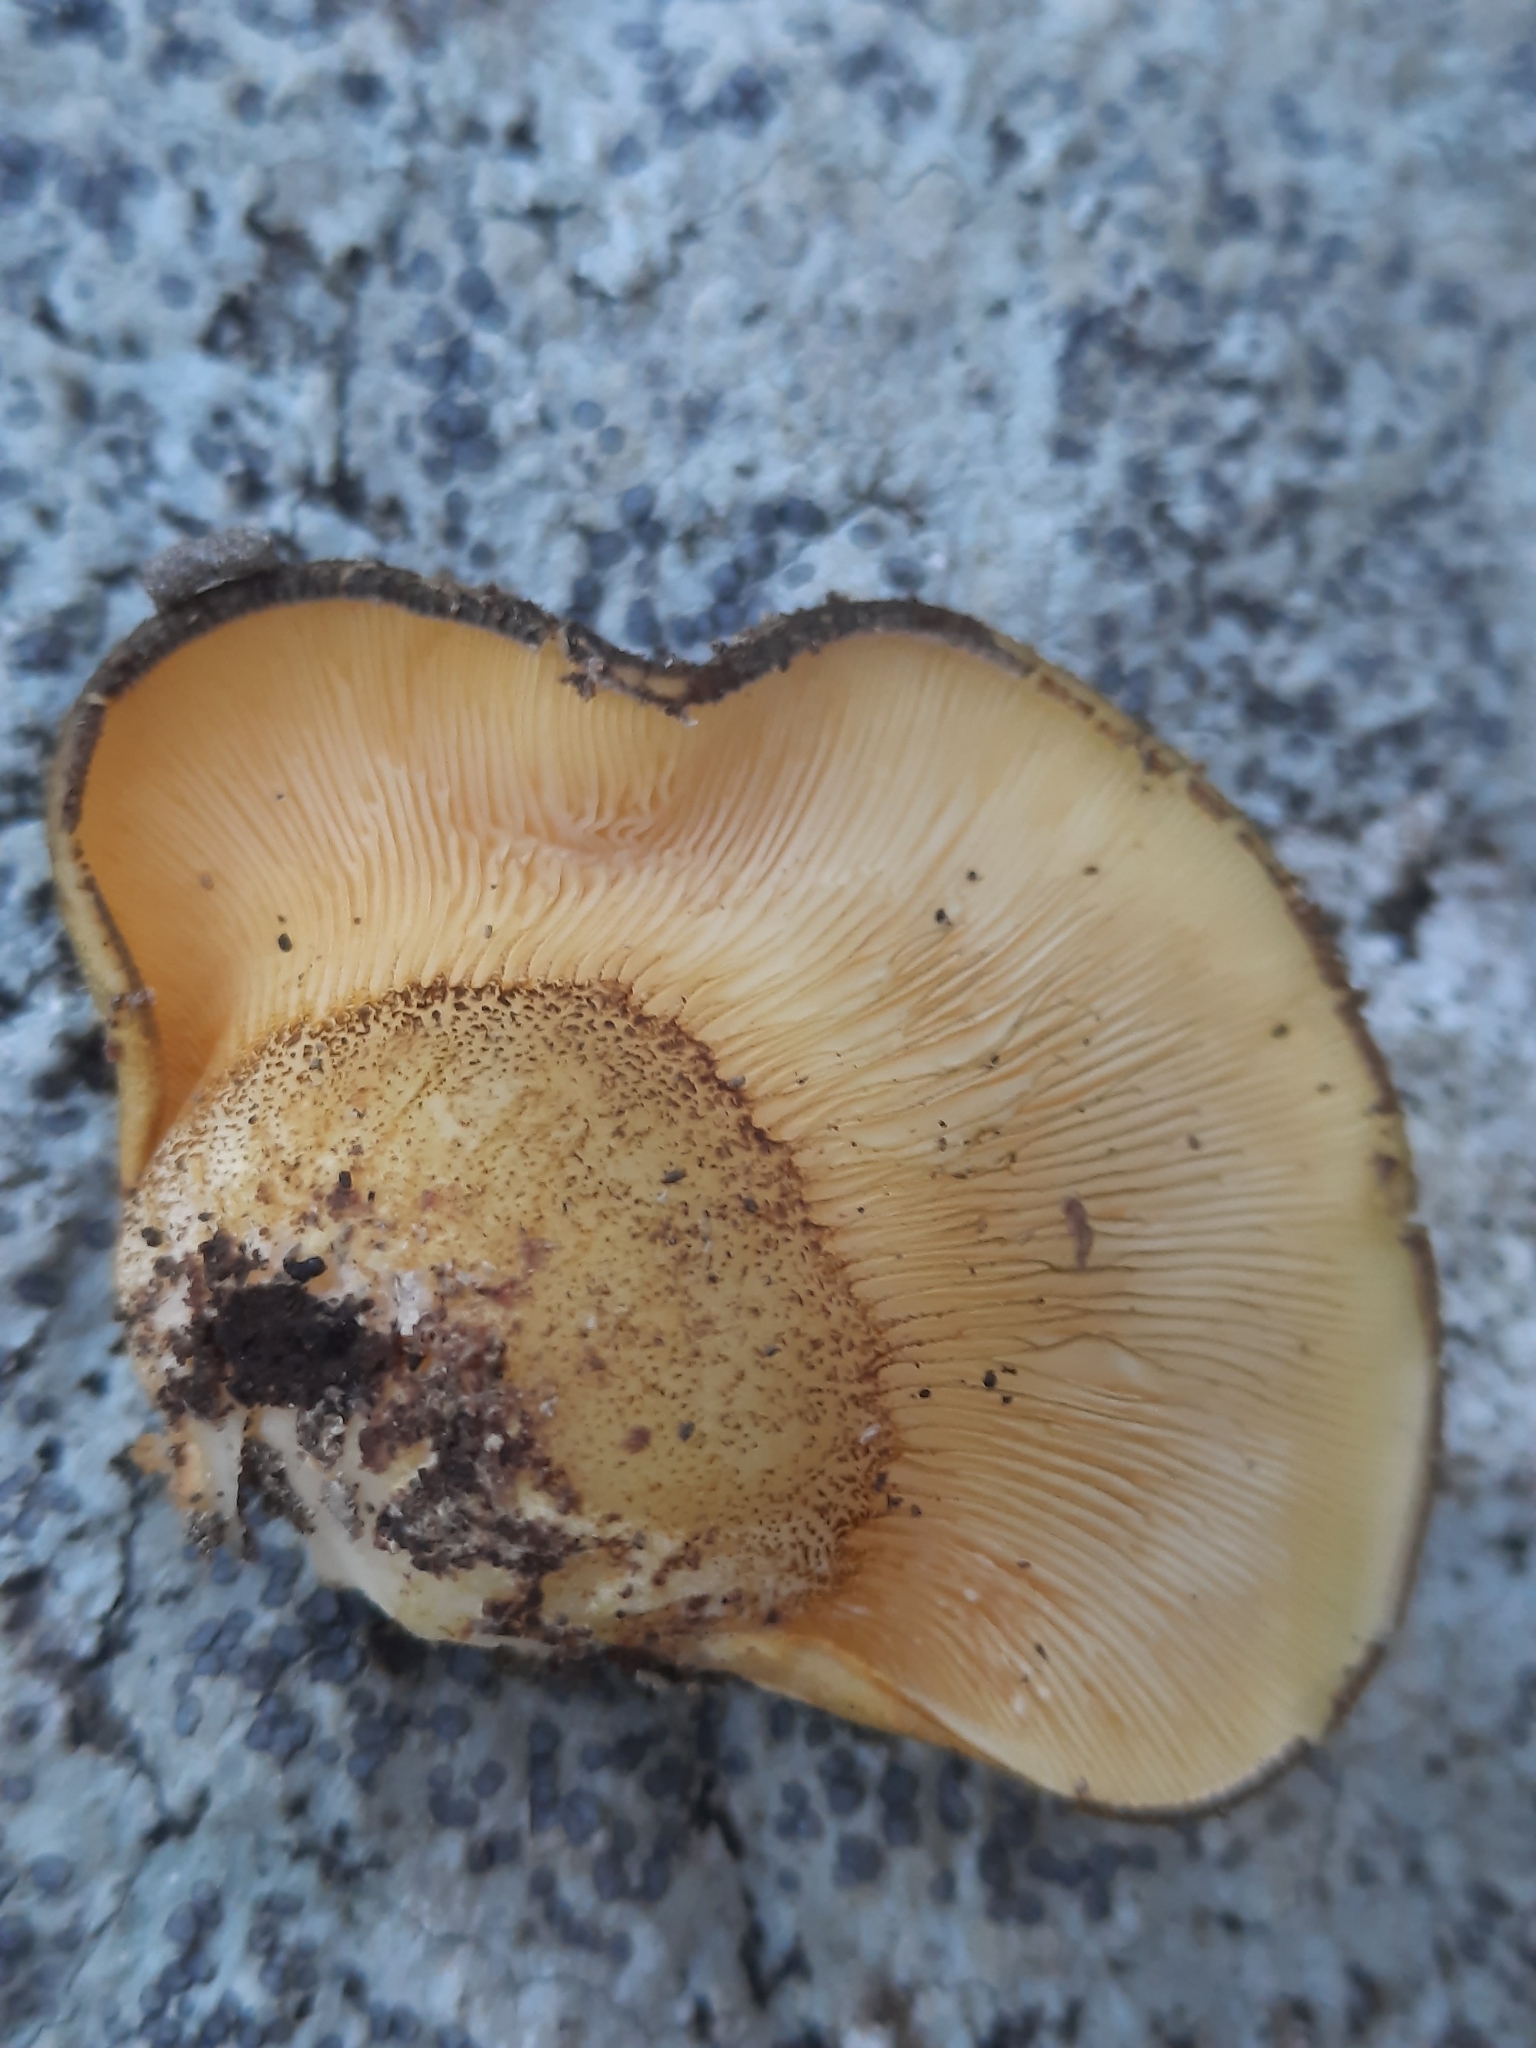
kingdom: Fungi
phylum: Basidiomycota
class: Agaricomycetes
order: Agaricales
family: Sarcomyxaceae
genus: Sarcomyxa
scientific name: Sarcomyxa serotina
